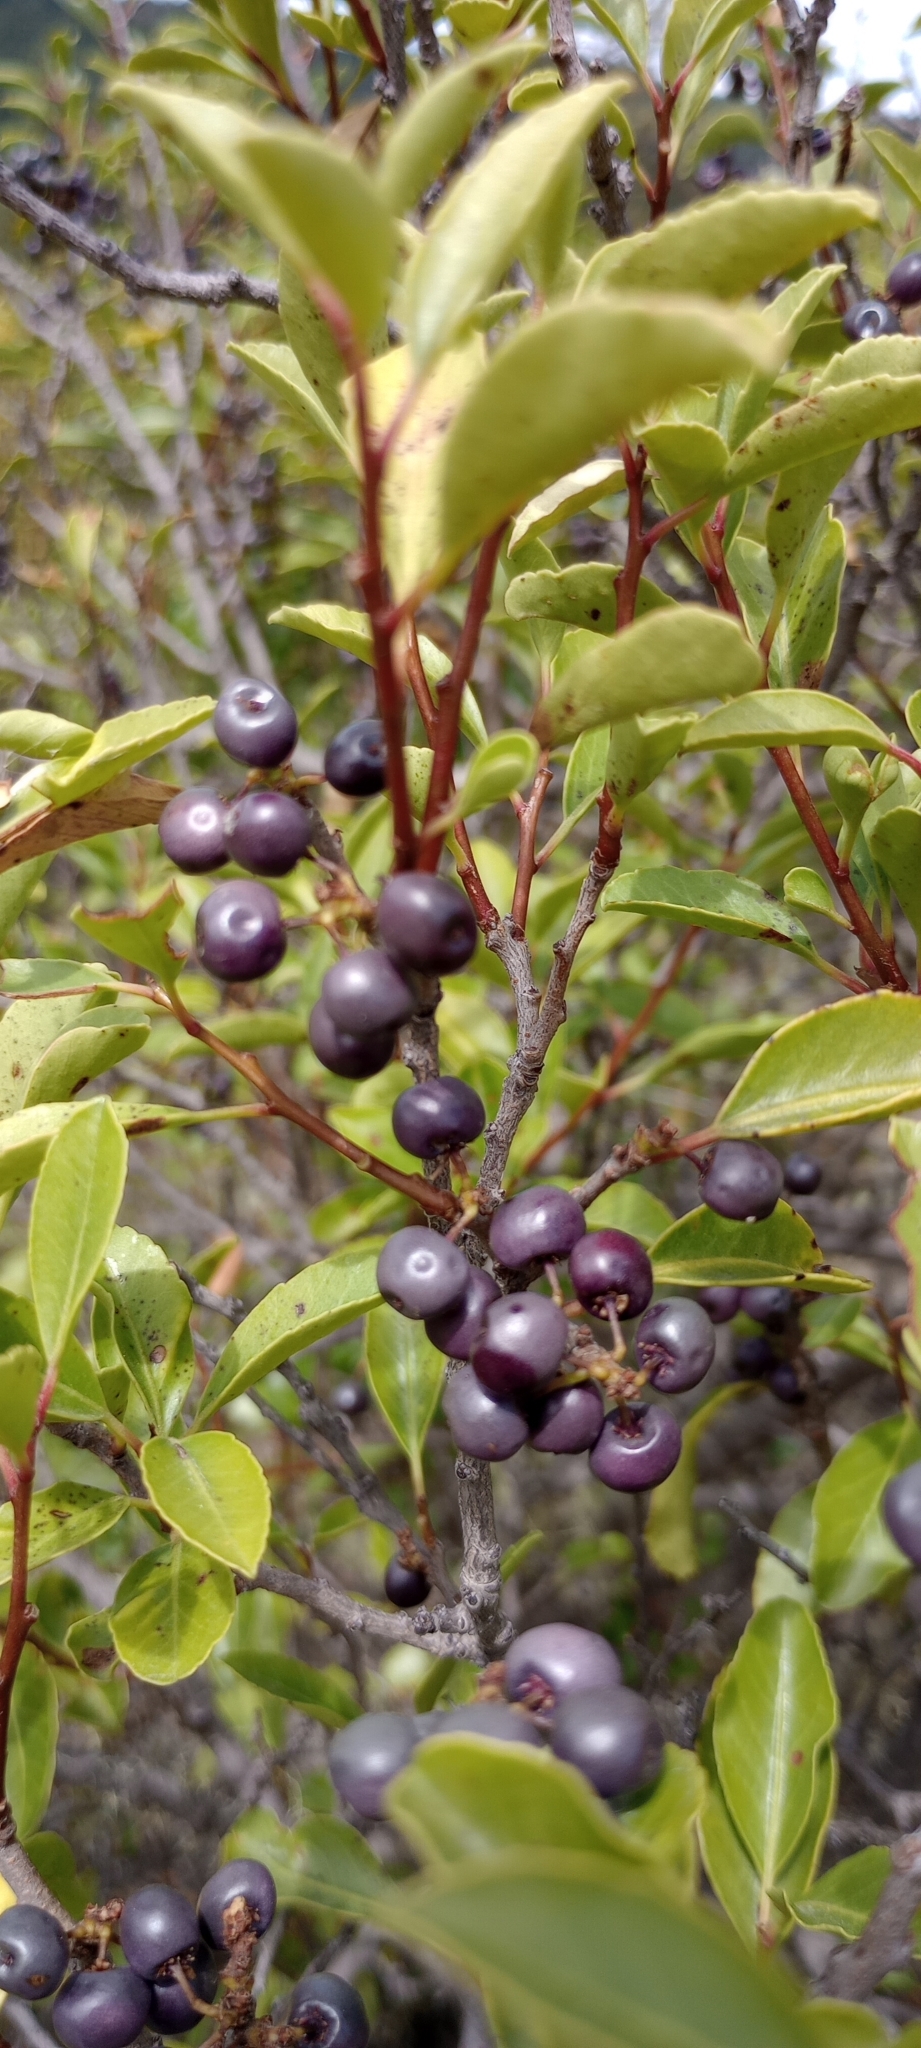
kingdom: Plantae
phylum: Tracheophyta
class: Magnoliopsida
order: Sapindales
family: Anacardiaceae
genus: Schinus
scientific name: Schinus patagonica
